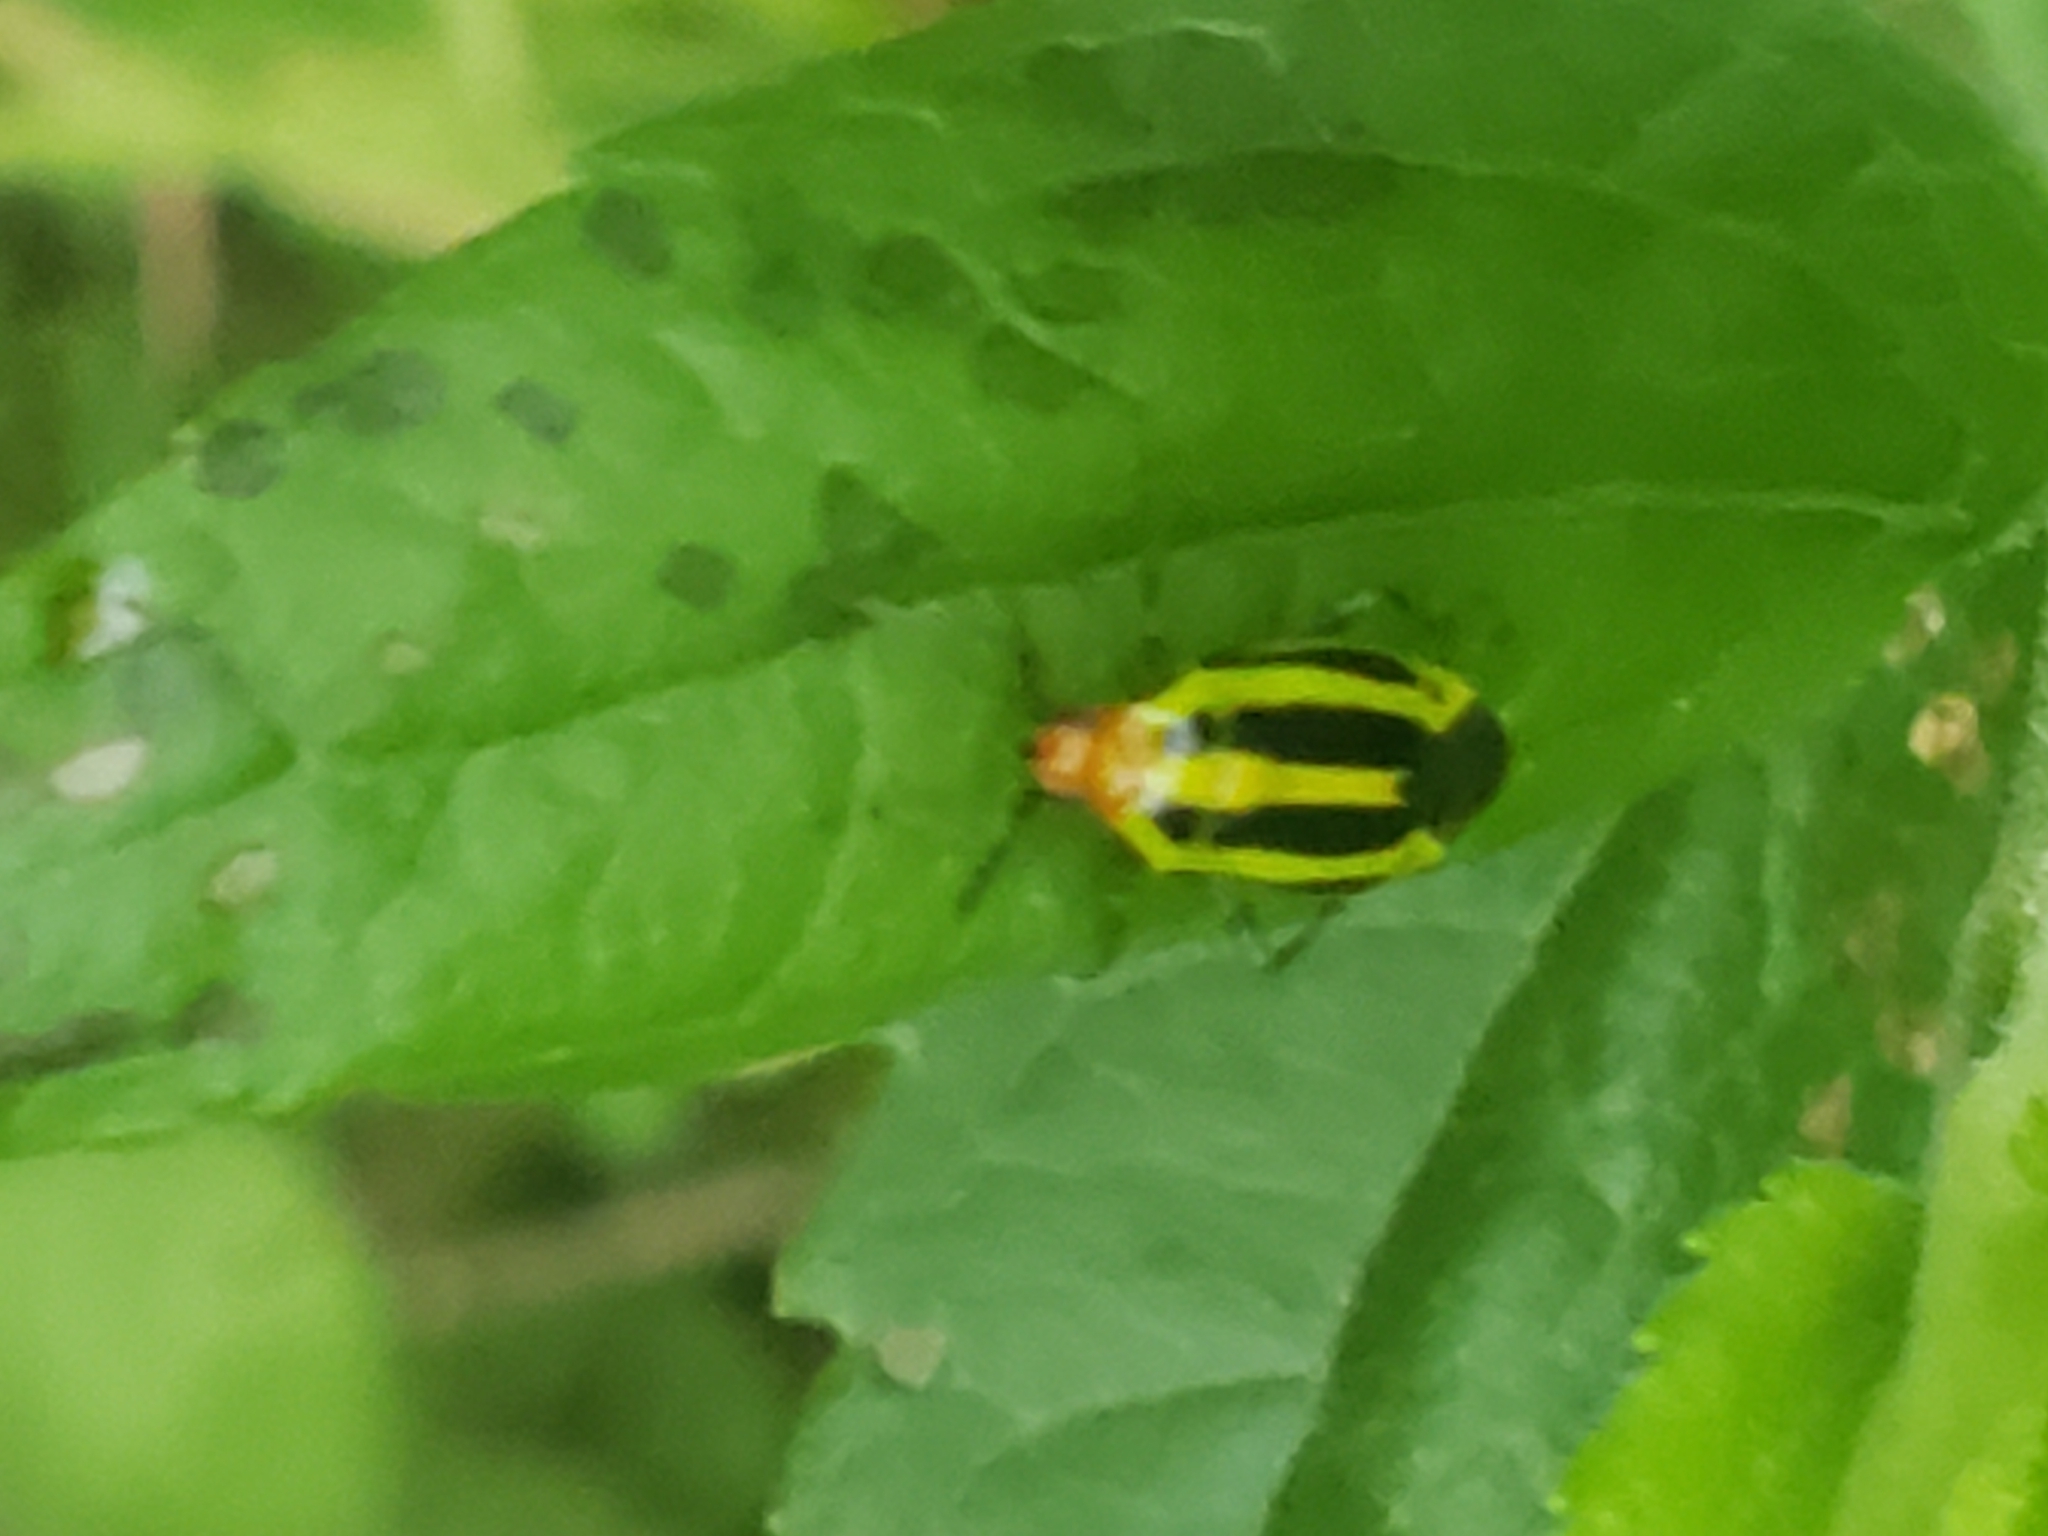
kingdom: Animalia
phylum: Arthropoda
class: Insecta
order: Hemiptera
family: Miridae
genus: Poecilocapsus
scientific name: Poecilocapsus lineatus
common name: Four-lined plant bug
